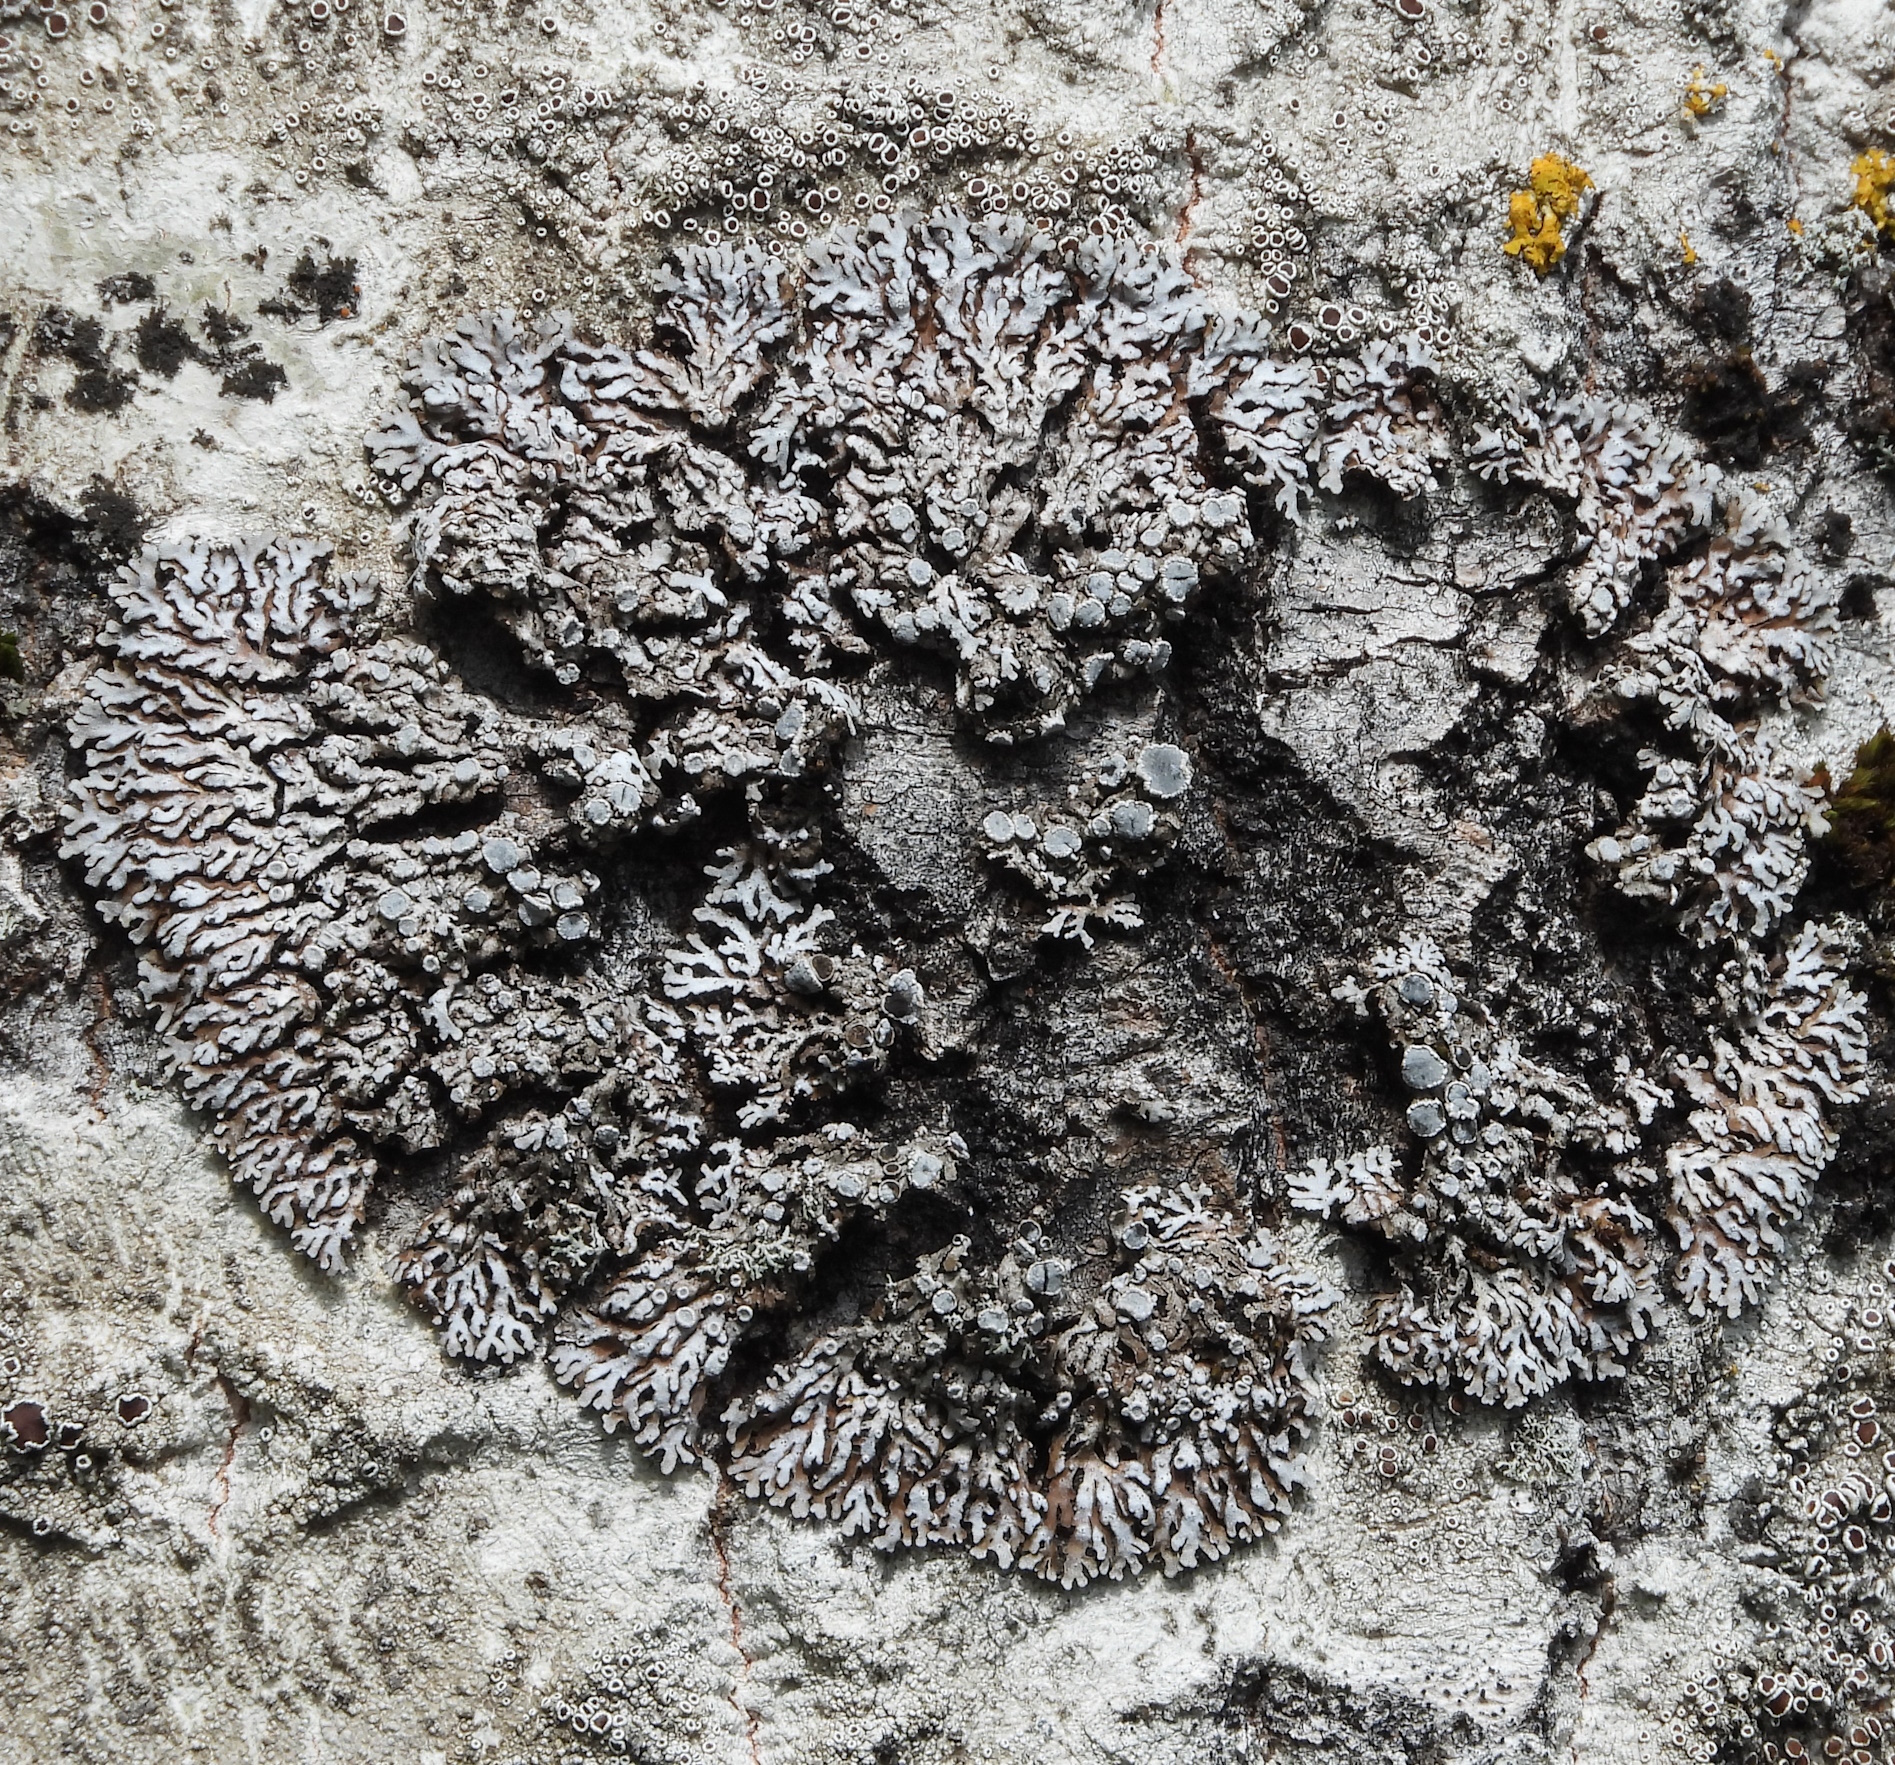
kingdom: Fungi
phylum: Ascomycota
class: Lecanoromycetes
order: Caliciales
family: Physciaceae
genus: Physconia
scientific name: Physconia distorta
